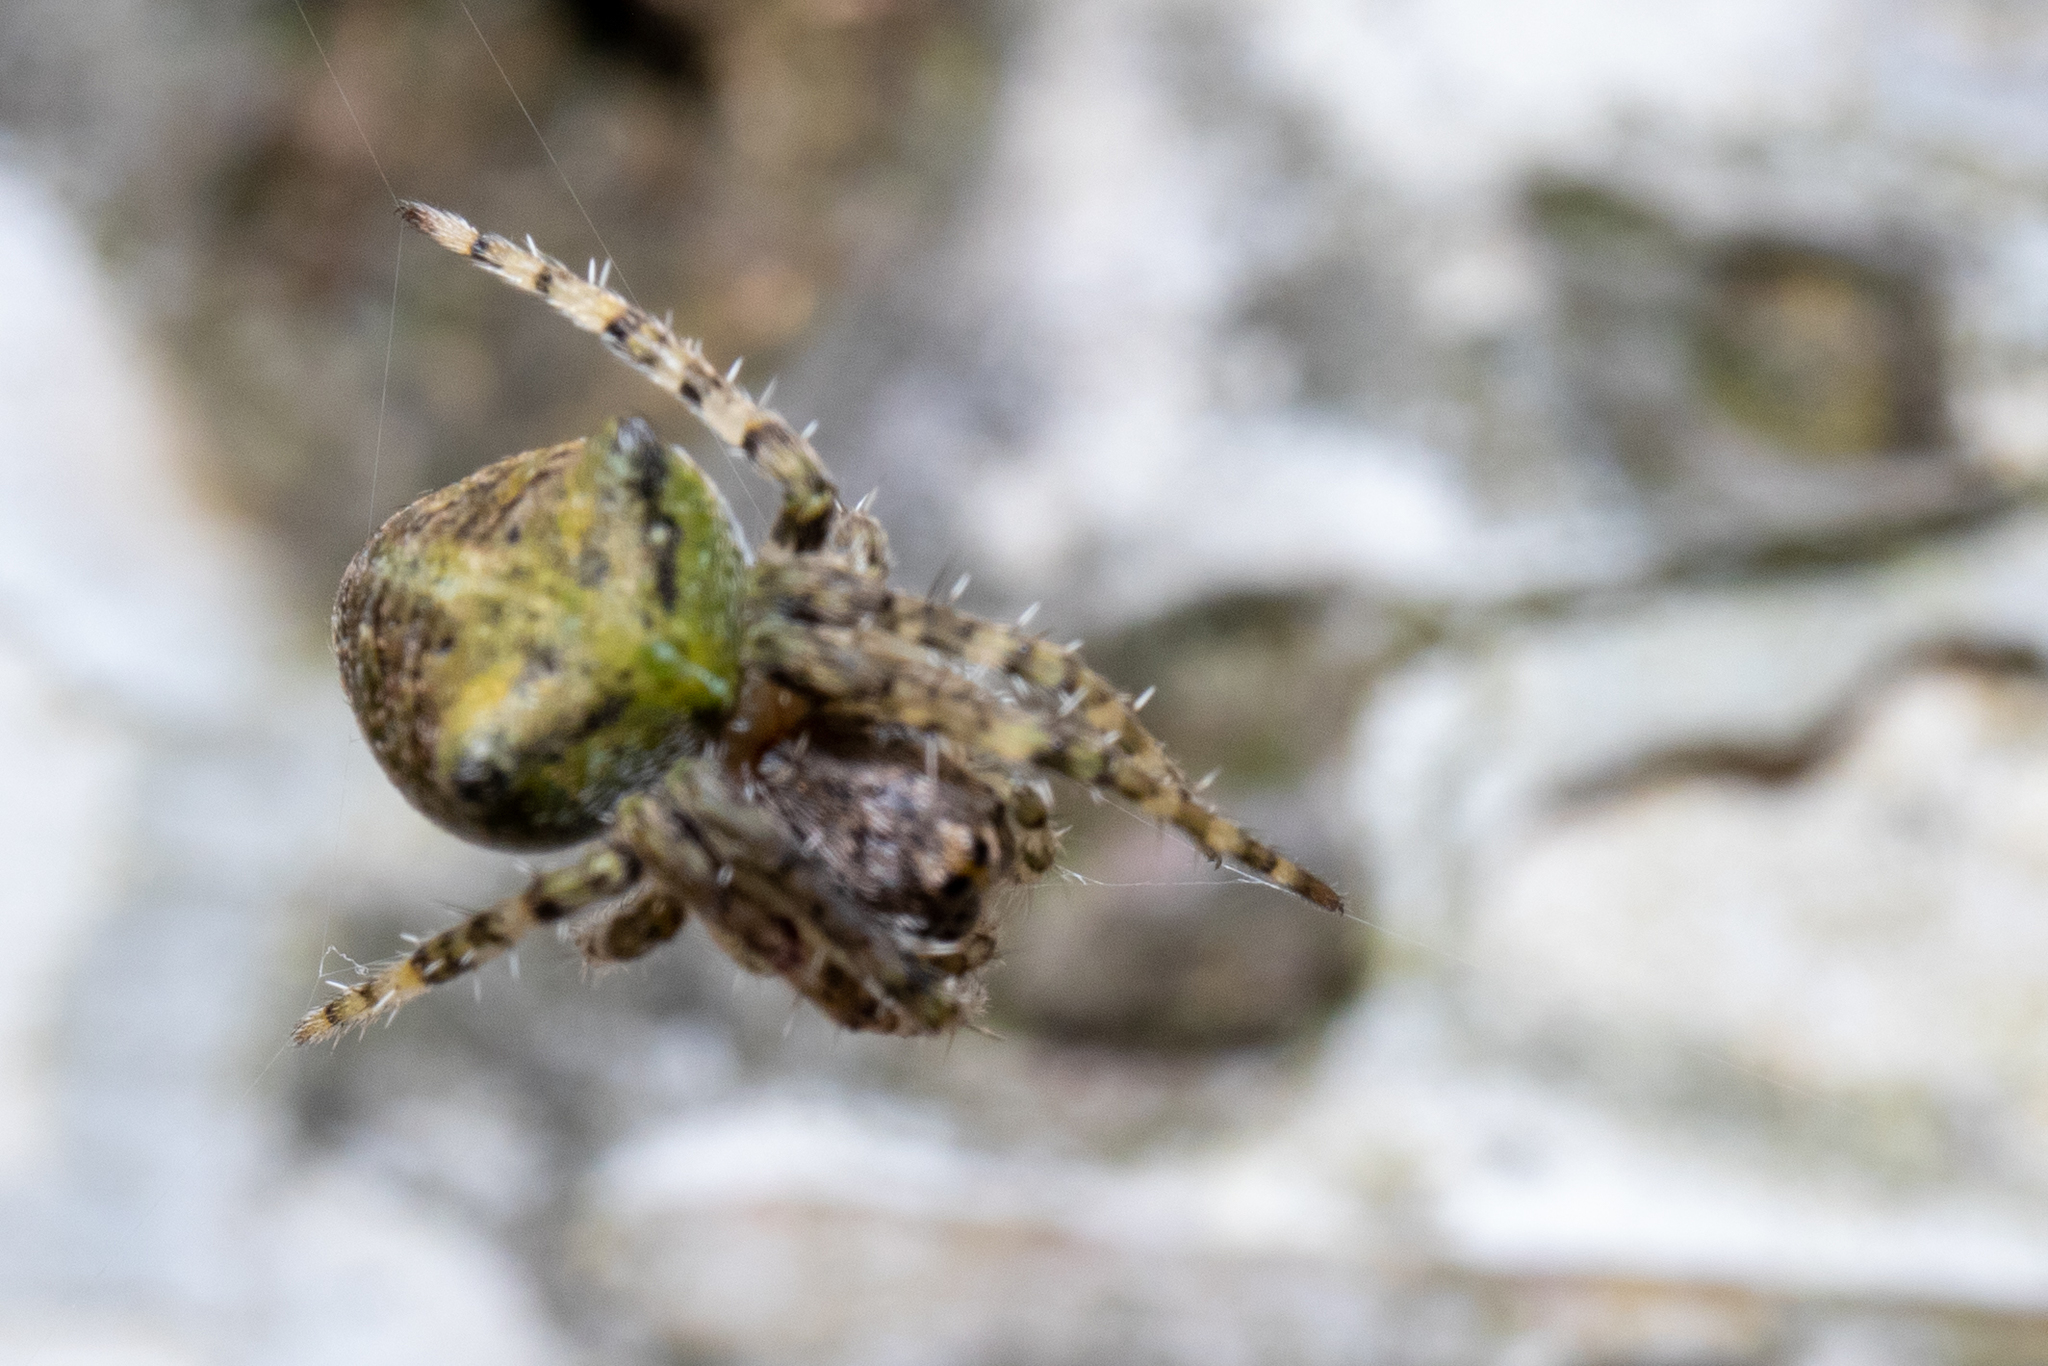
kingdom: Animalia
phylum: Arthropoda
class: Arachnida
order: Araneae
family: Araneidae
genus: Gibbaranea
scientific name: Gibbaranea gibbosa
